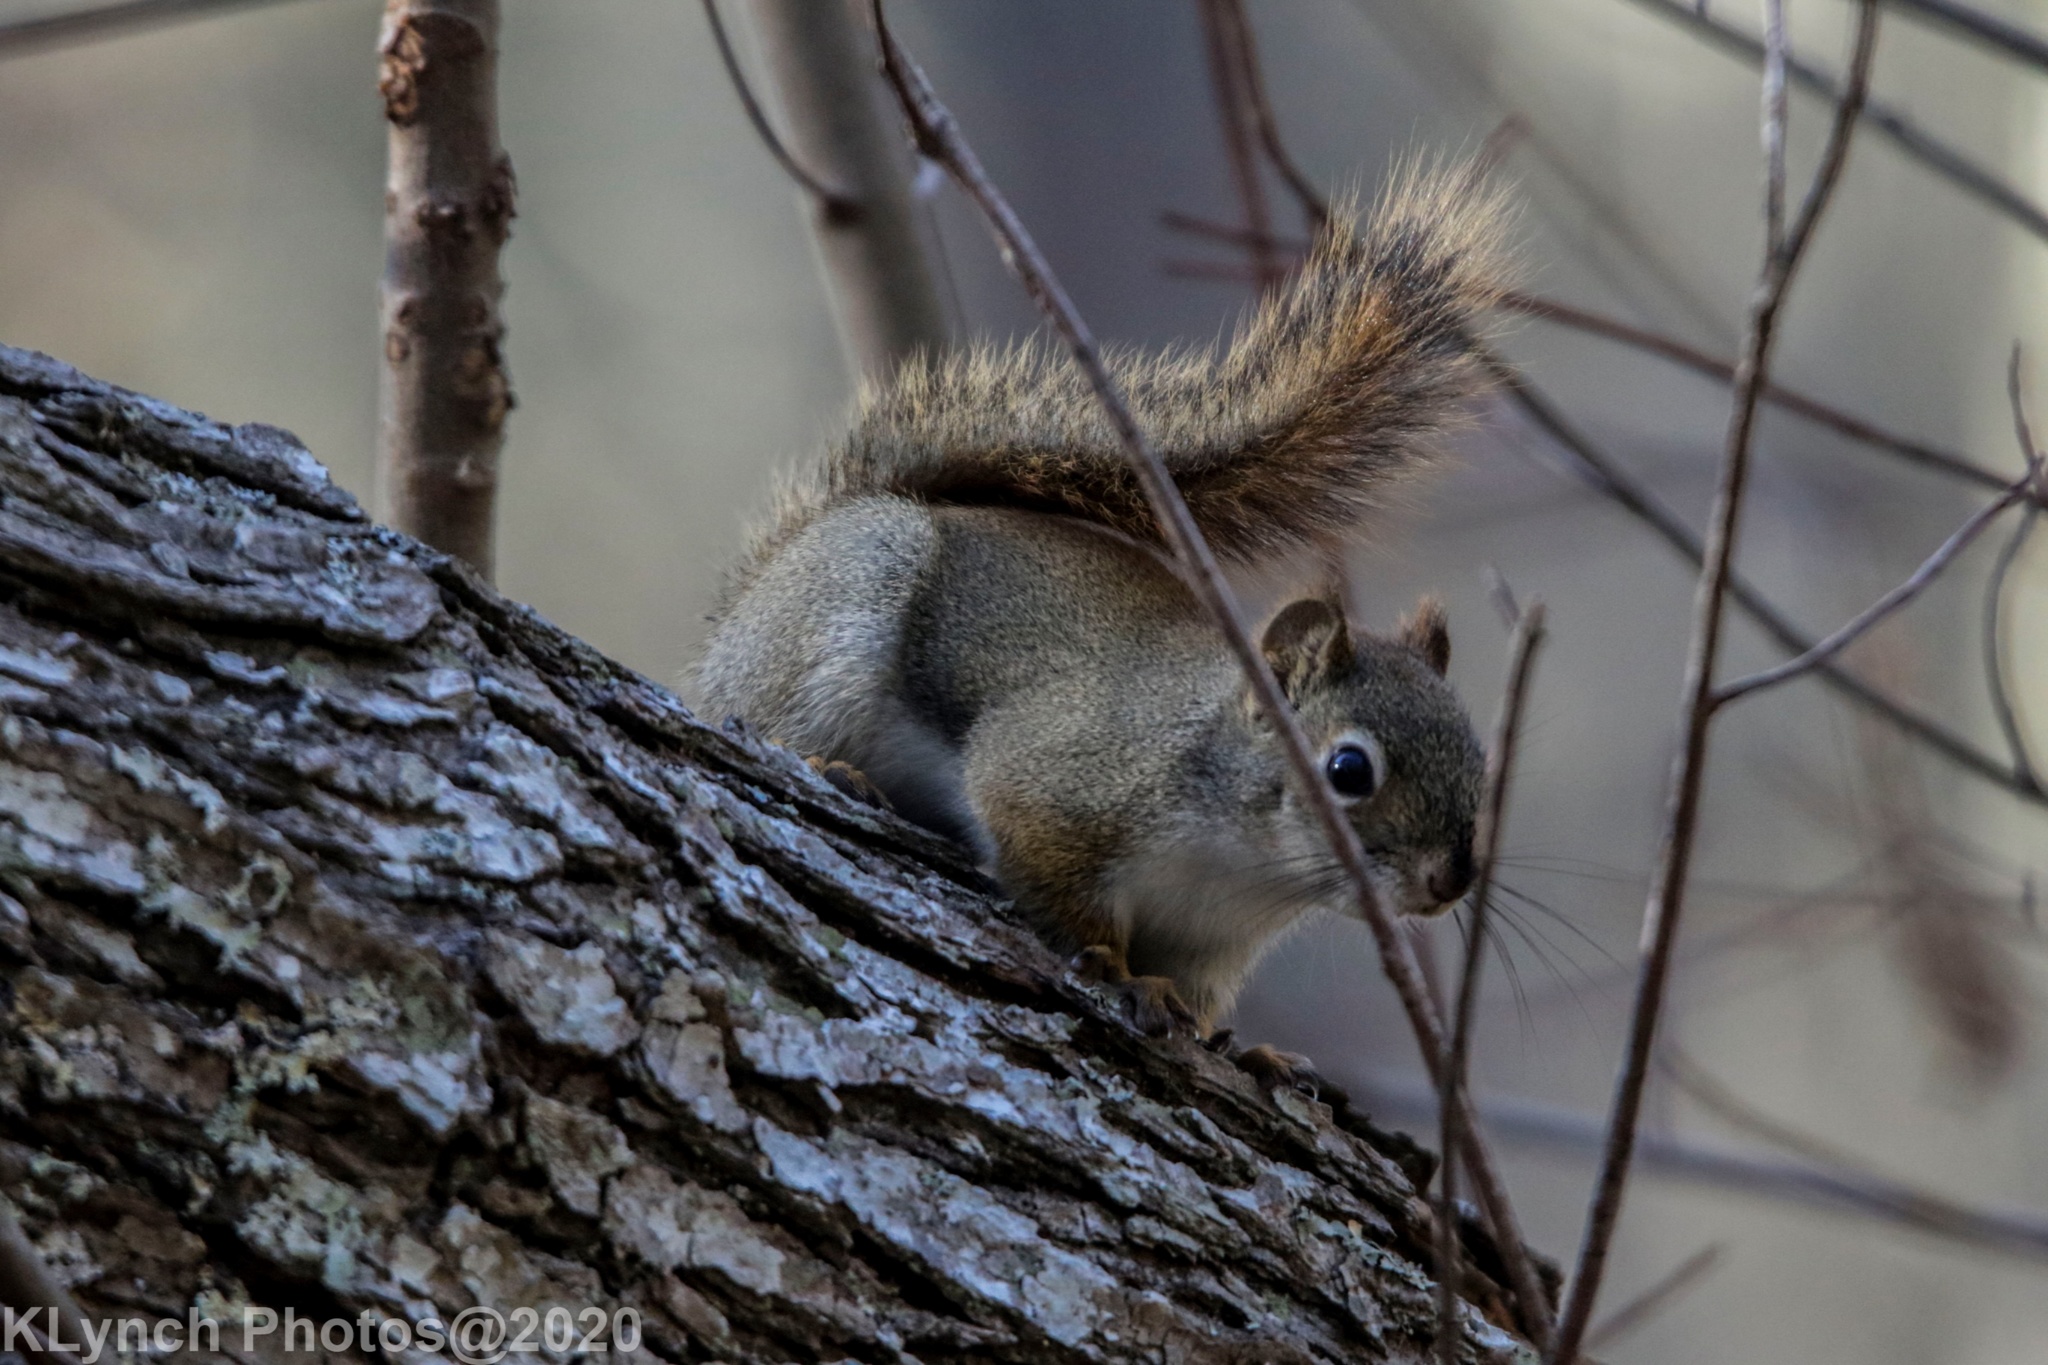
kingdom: Animalia
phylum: Chordata
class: Mammalia
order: Rodentia
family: Sciuridae
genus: Tamiasciurus
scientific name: Tamiasciurus hudsonicus
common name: Red squirrel
